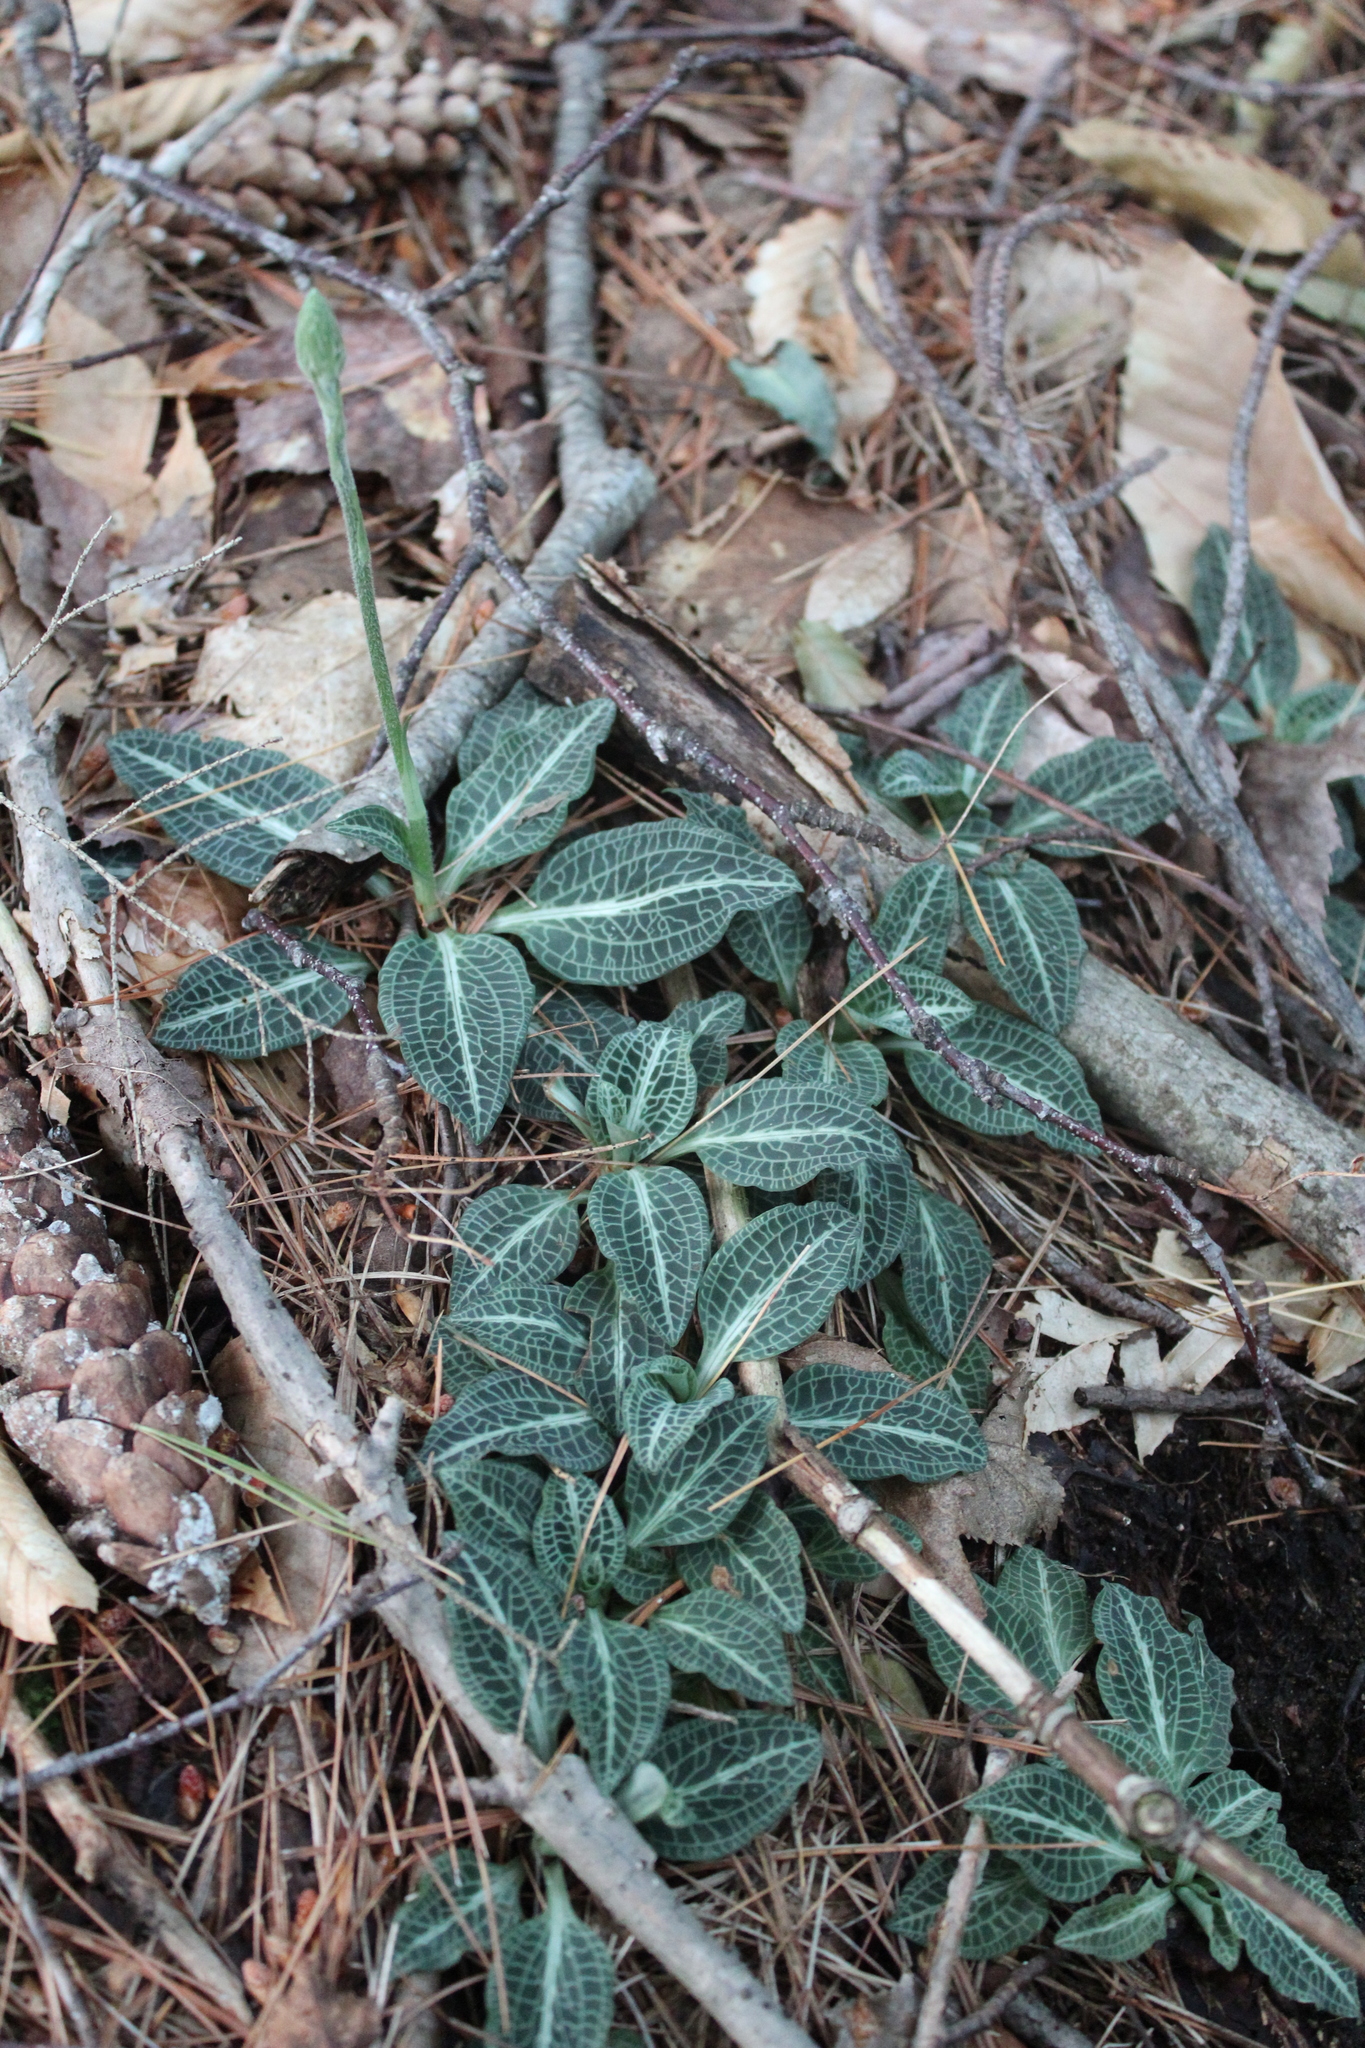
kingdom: Plantae
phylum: Tracheophyta
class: Liliopsida
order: Asparagales
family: Orchidaceae
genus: Goodyera
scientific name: Goodyera pubescens
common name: Downy rattlesnake-plantain
